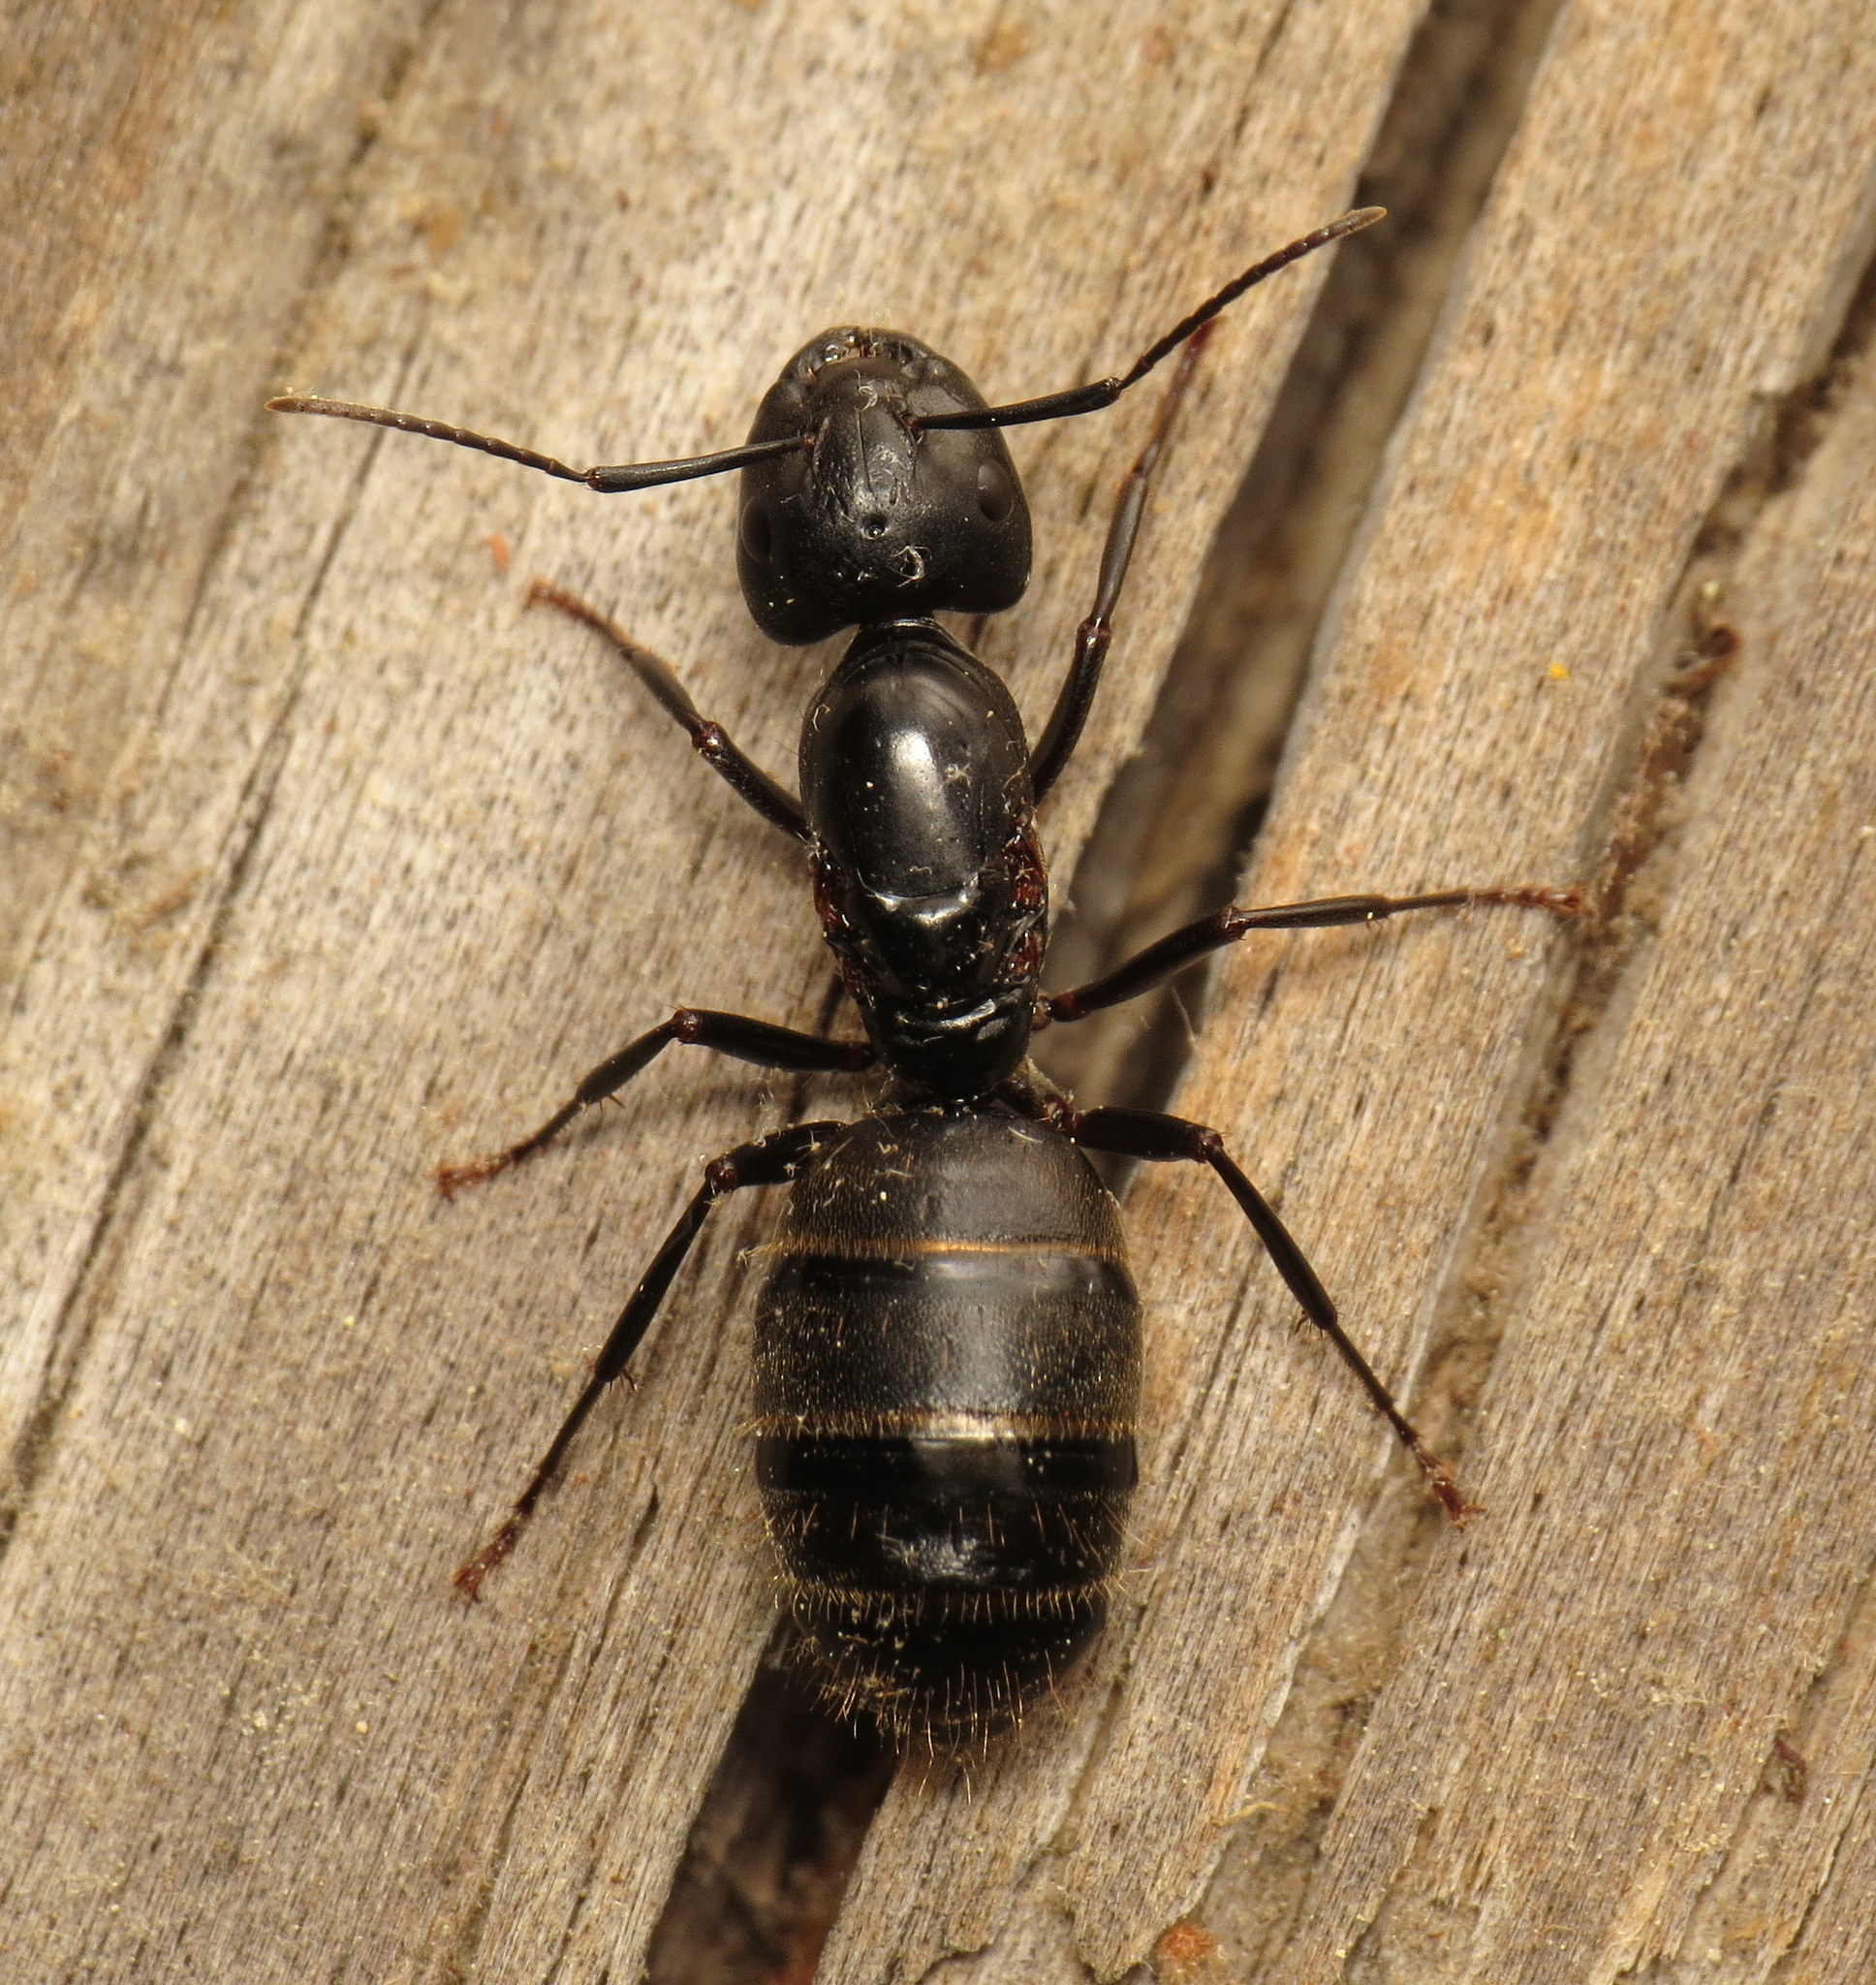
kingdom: Animalia
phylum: Arthropoda
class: Insecta
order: Hymenoptera
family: Formicidae
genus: Camponotus
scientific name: Camponotus pennsylvanicus
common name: Black carpenter ant
